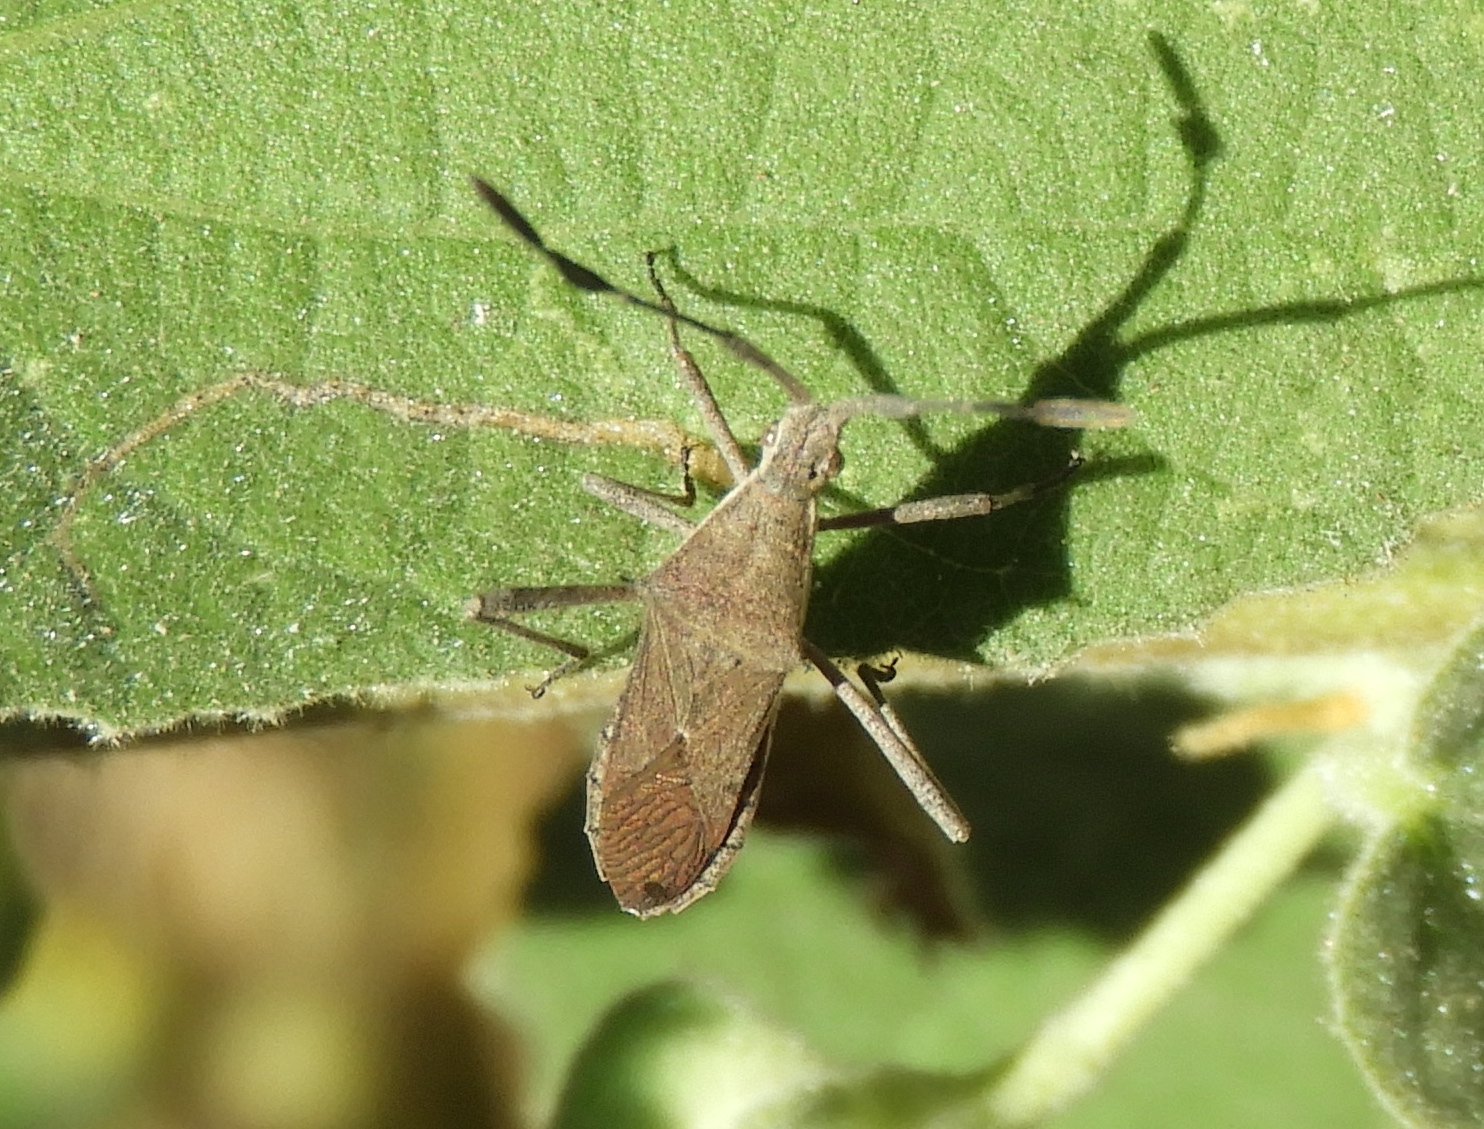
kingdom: Animalia
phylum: Arthropoda
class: Insecta
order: Hemiptera
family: Coreidae
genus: Chariesterus
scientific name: Chariesterus
